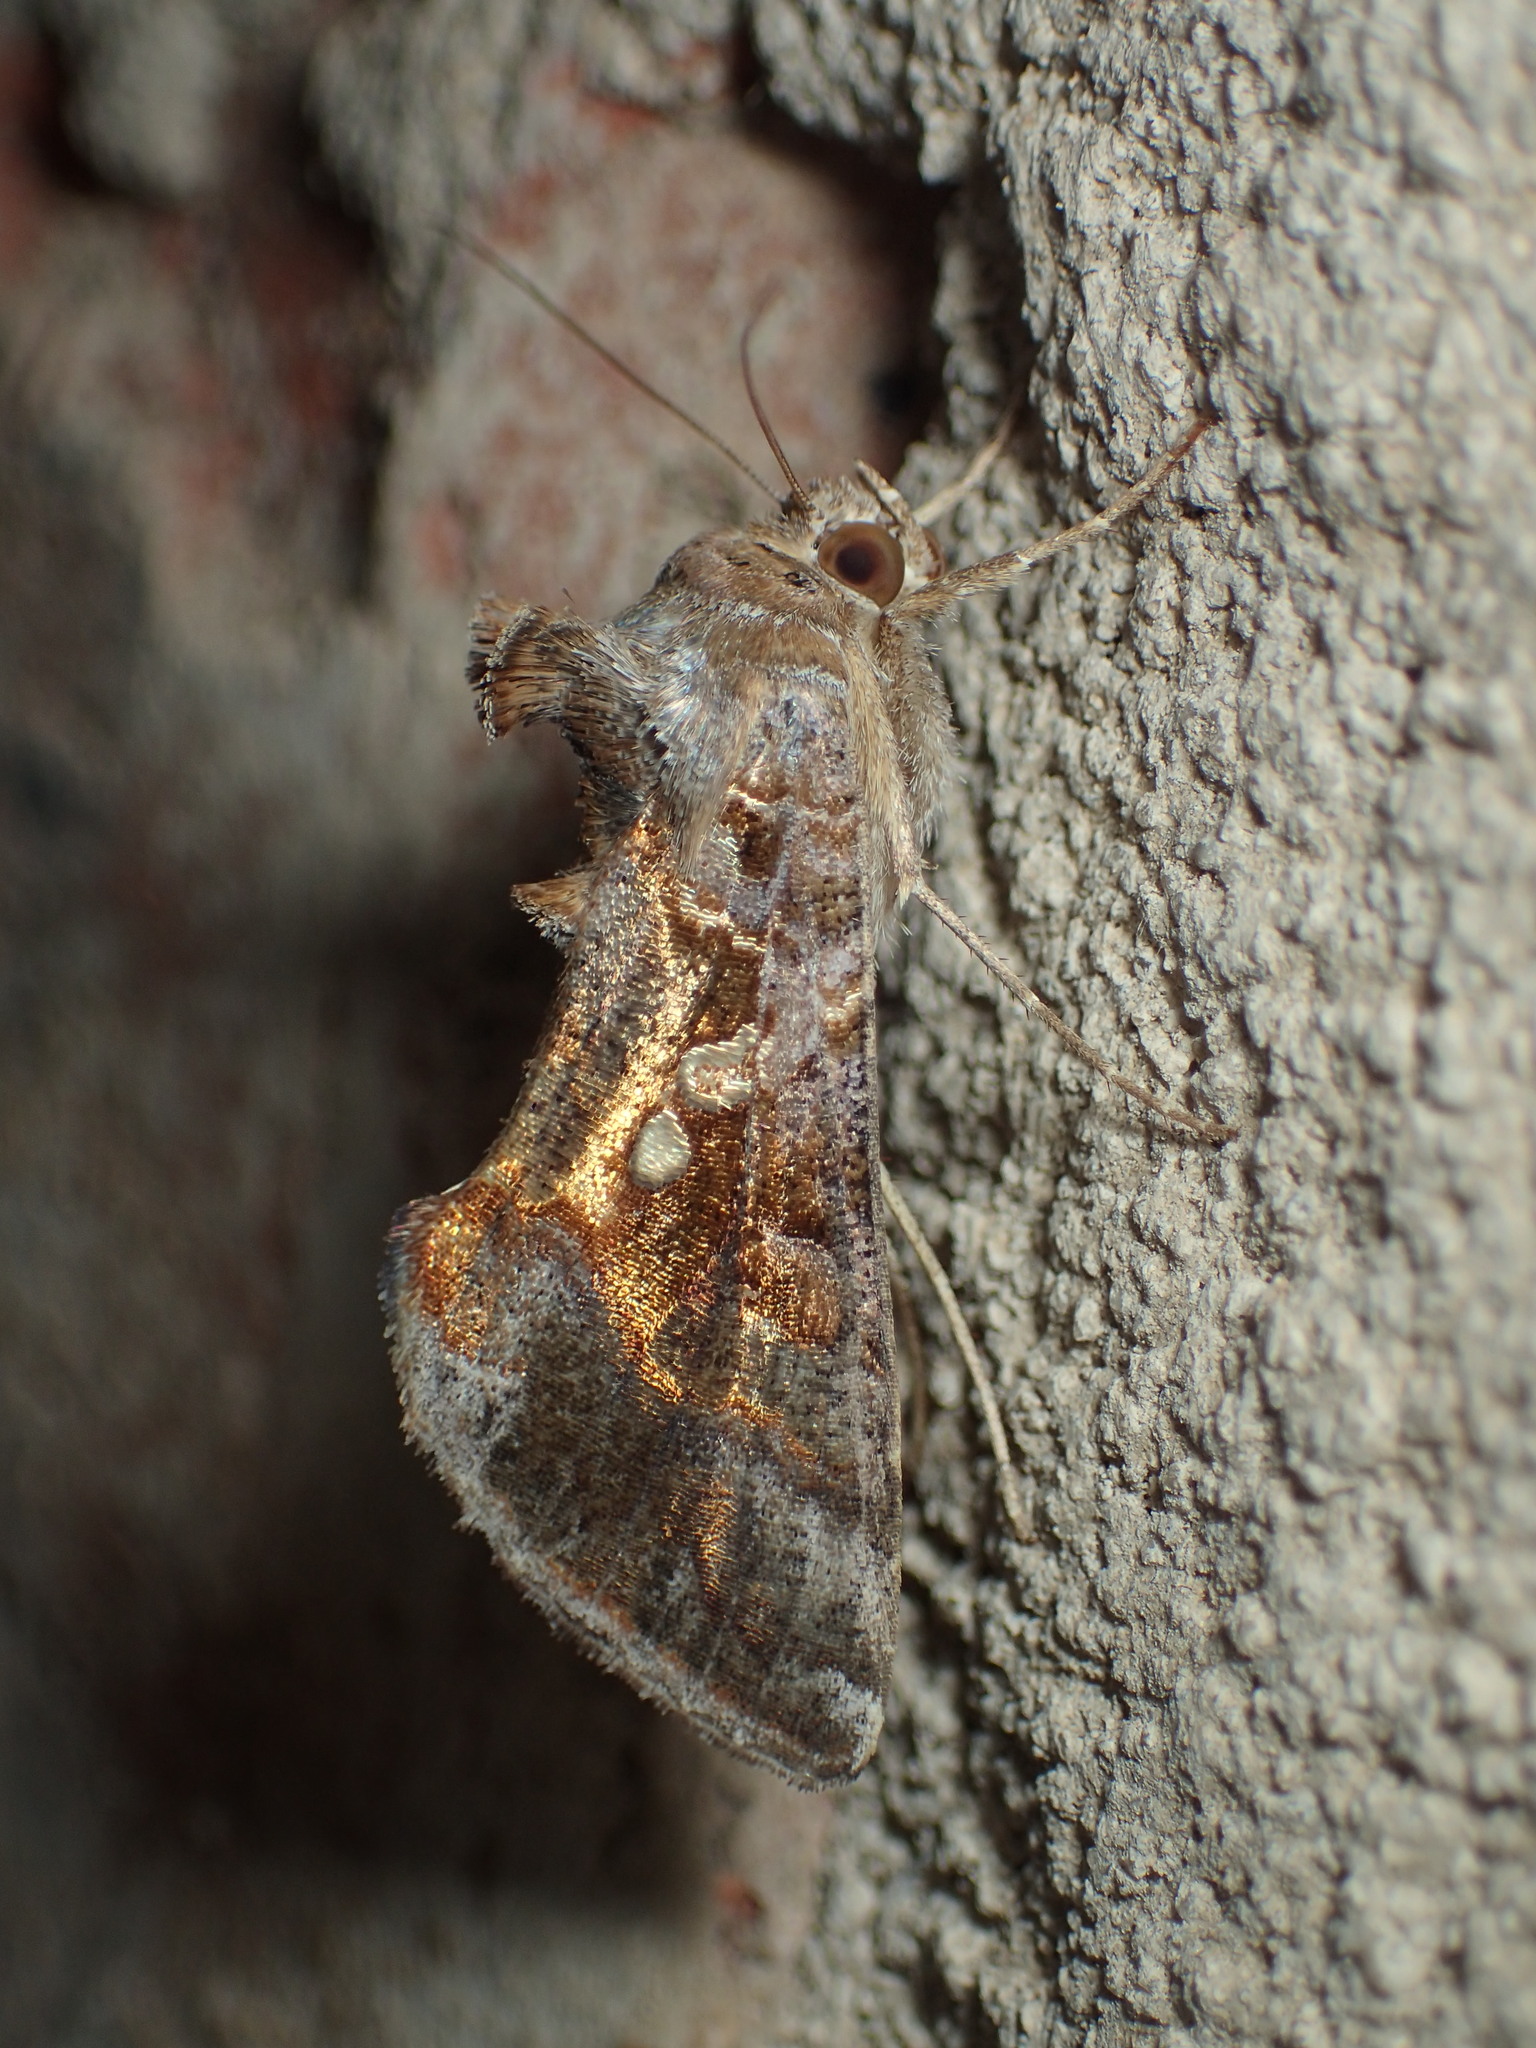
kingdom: Animalia
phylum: Arthropoda
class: Insecta
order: Lepidoptera
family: Noctuidae
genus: Chrysodeixis
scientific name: Chrysodeixis includens
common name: Cutworm moth
